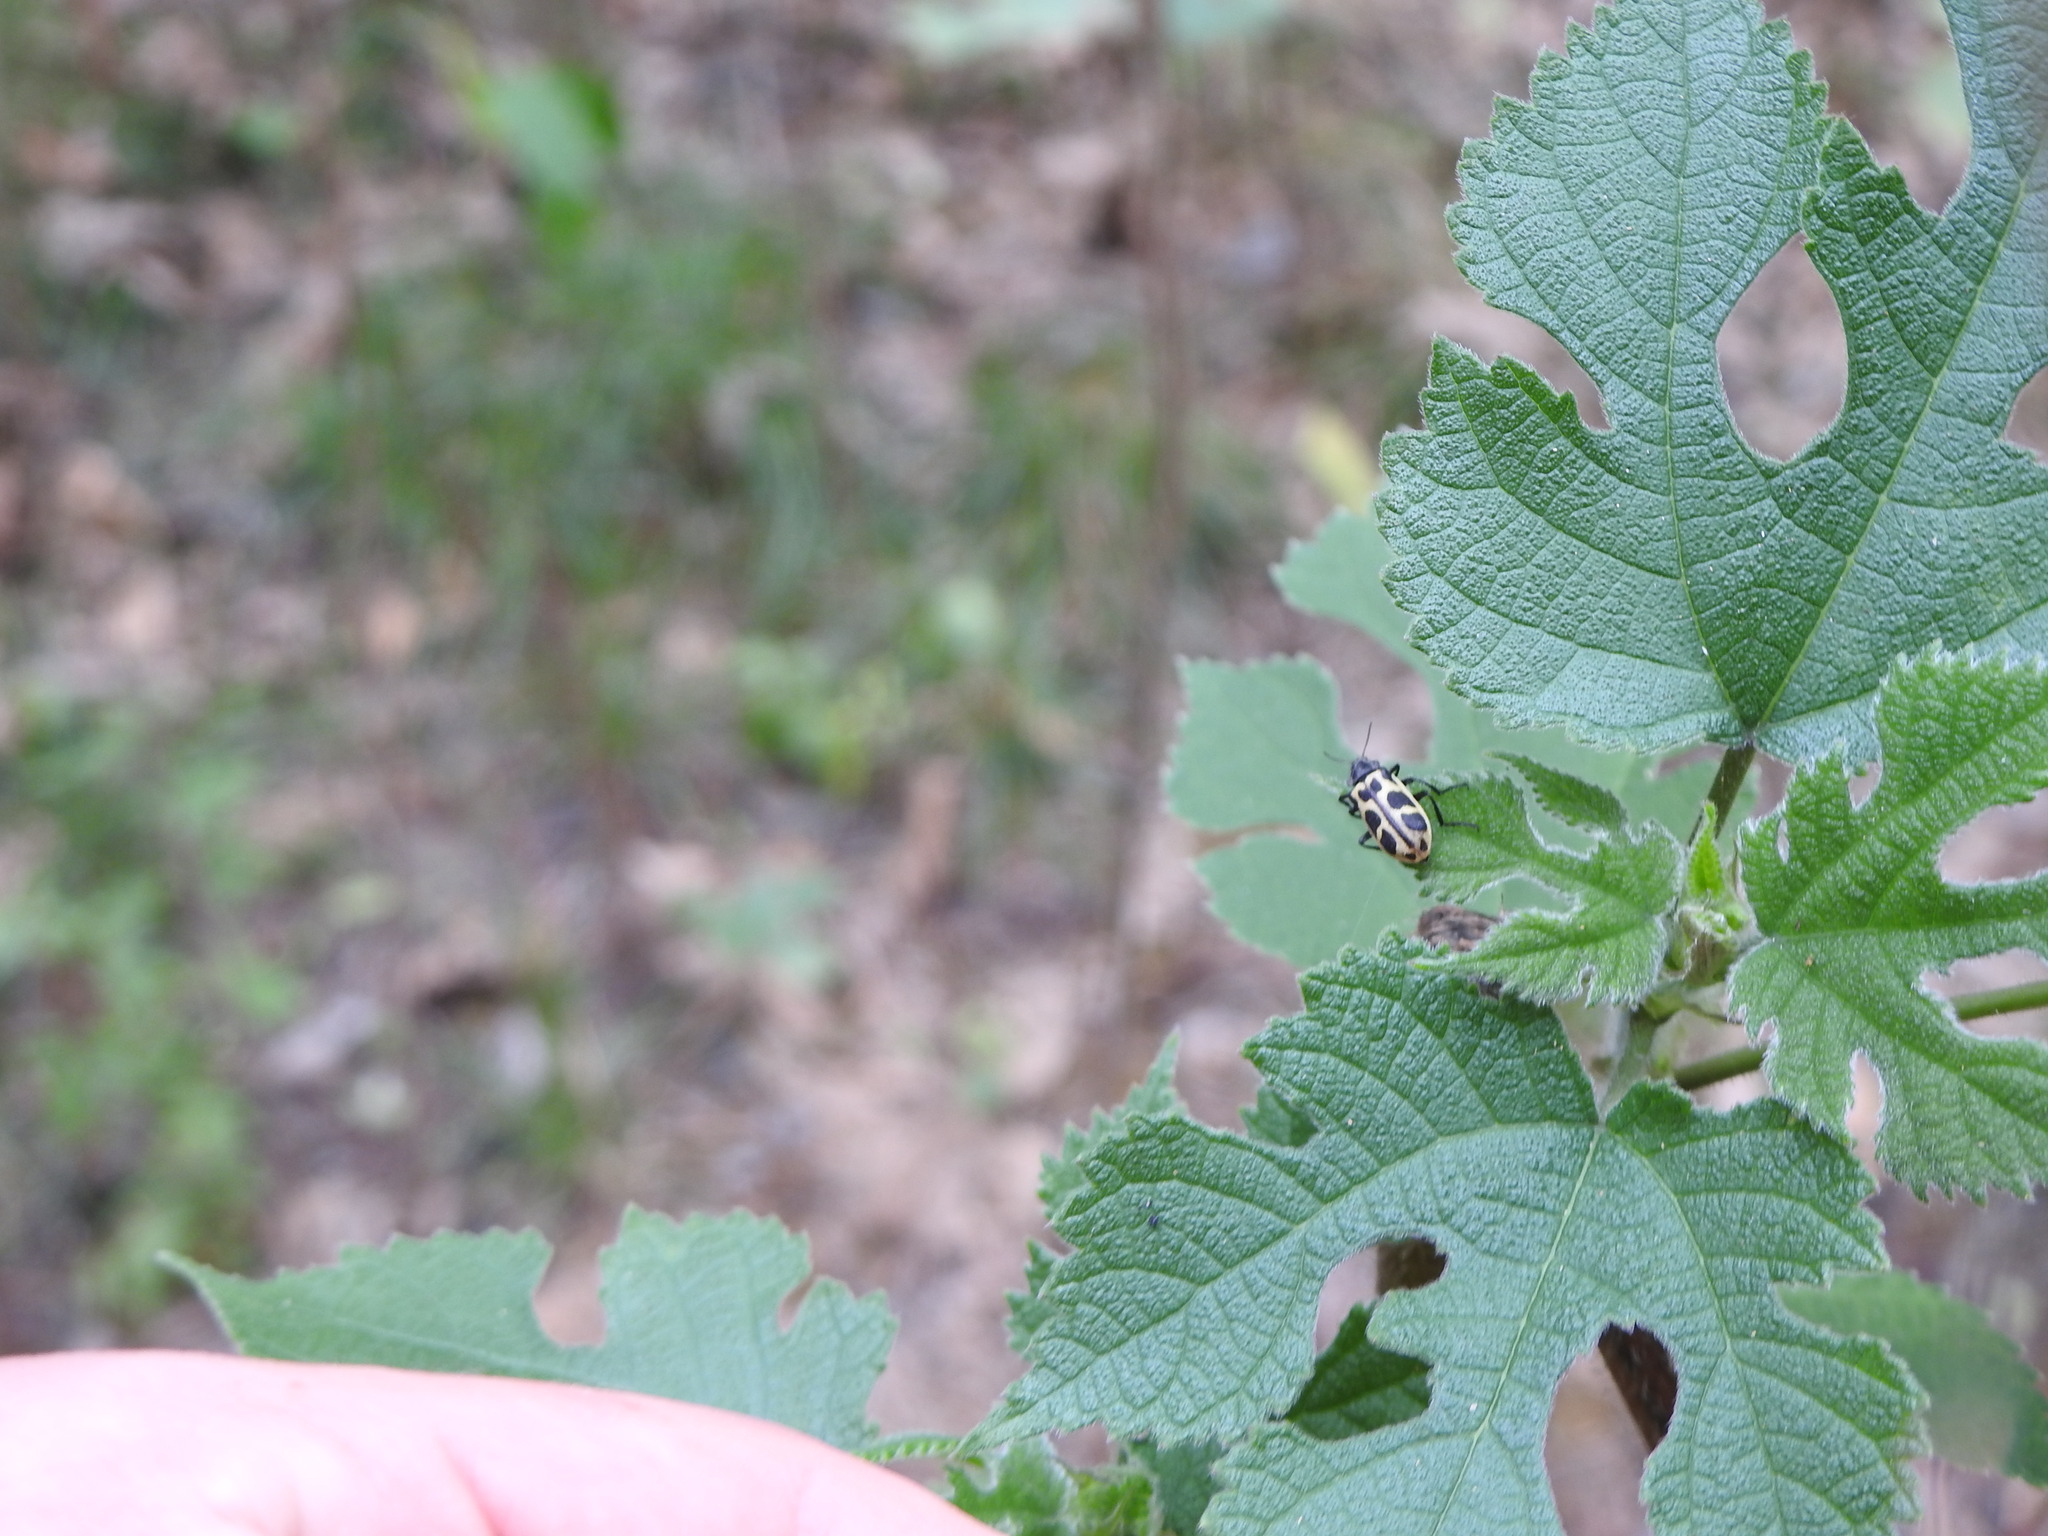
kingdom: Animalia
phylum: Arthropoda
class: Insecta
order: Coleoptera
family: Melyridae
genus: Astylus
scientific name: Astylus atromaculatus
